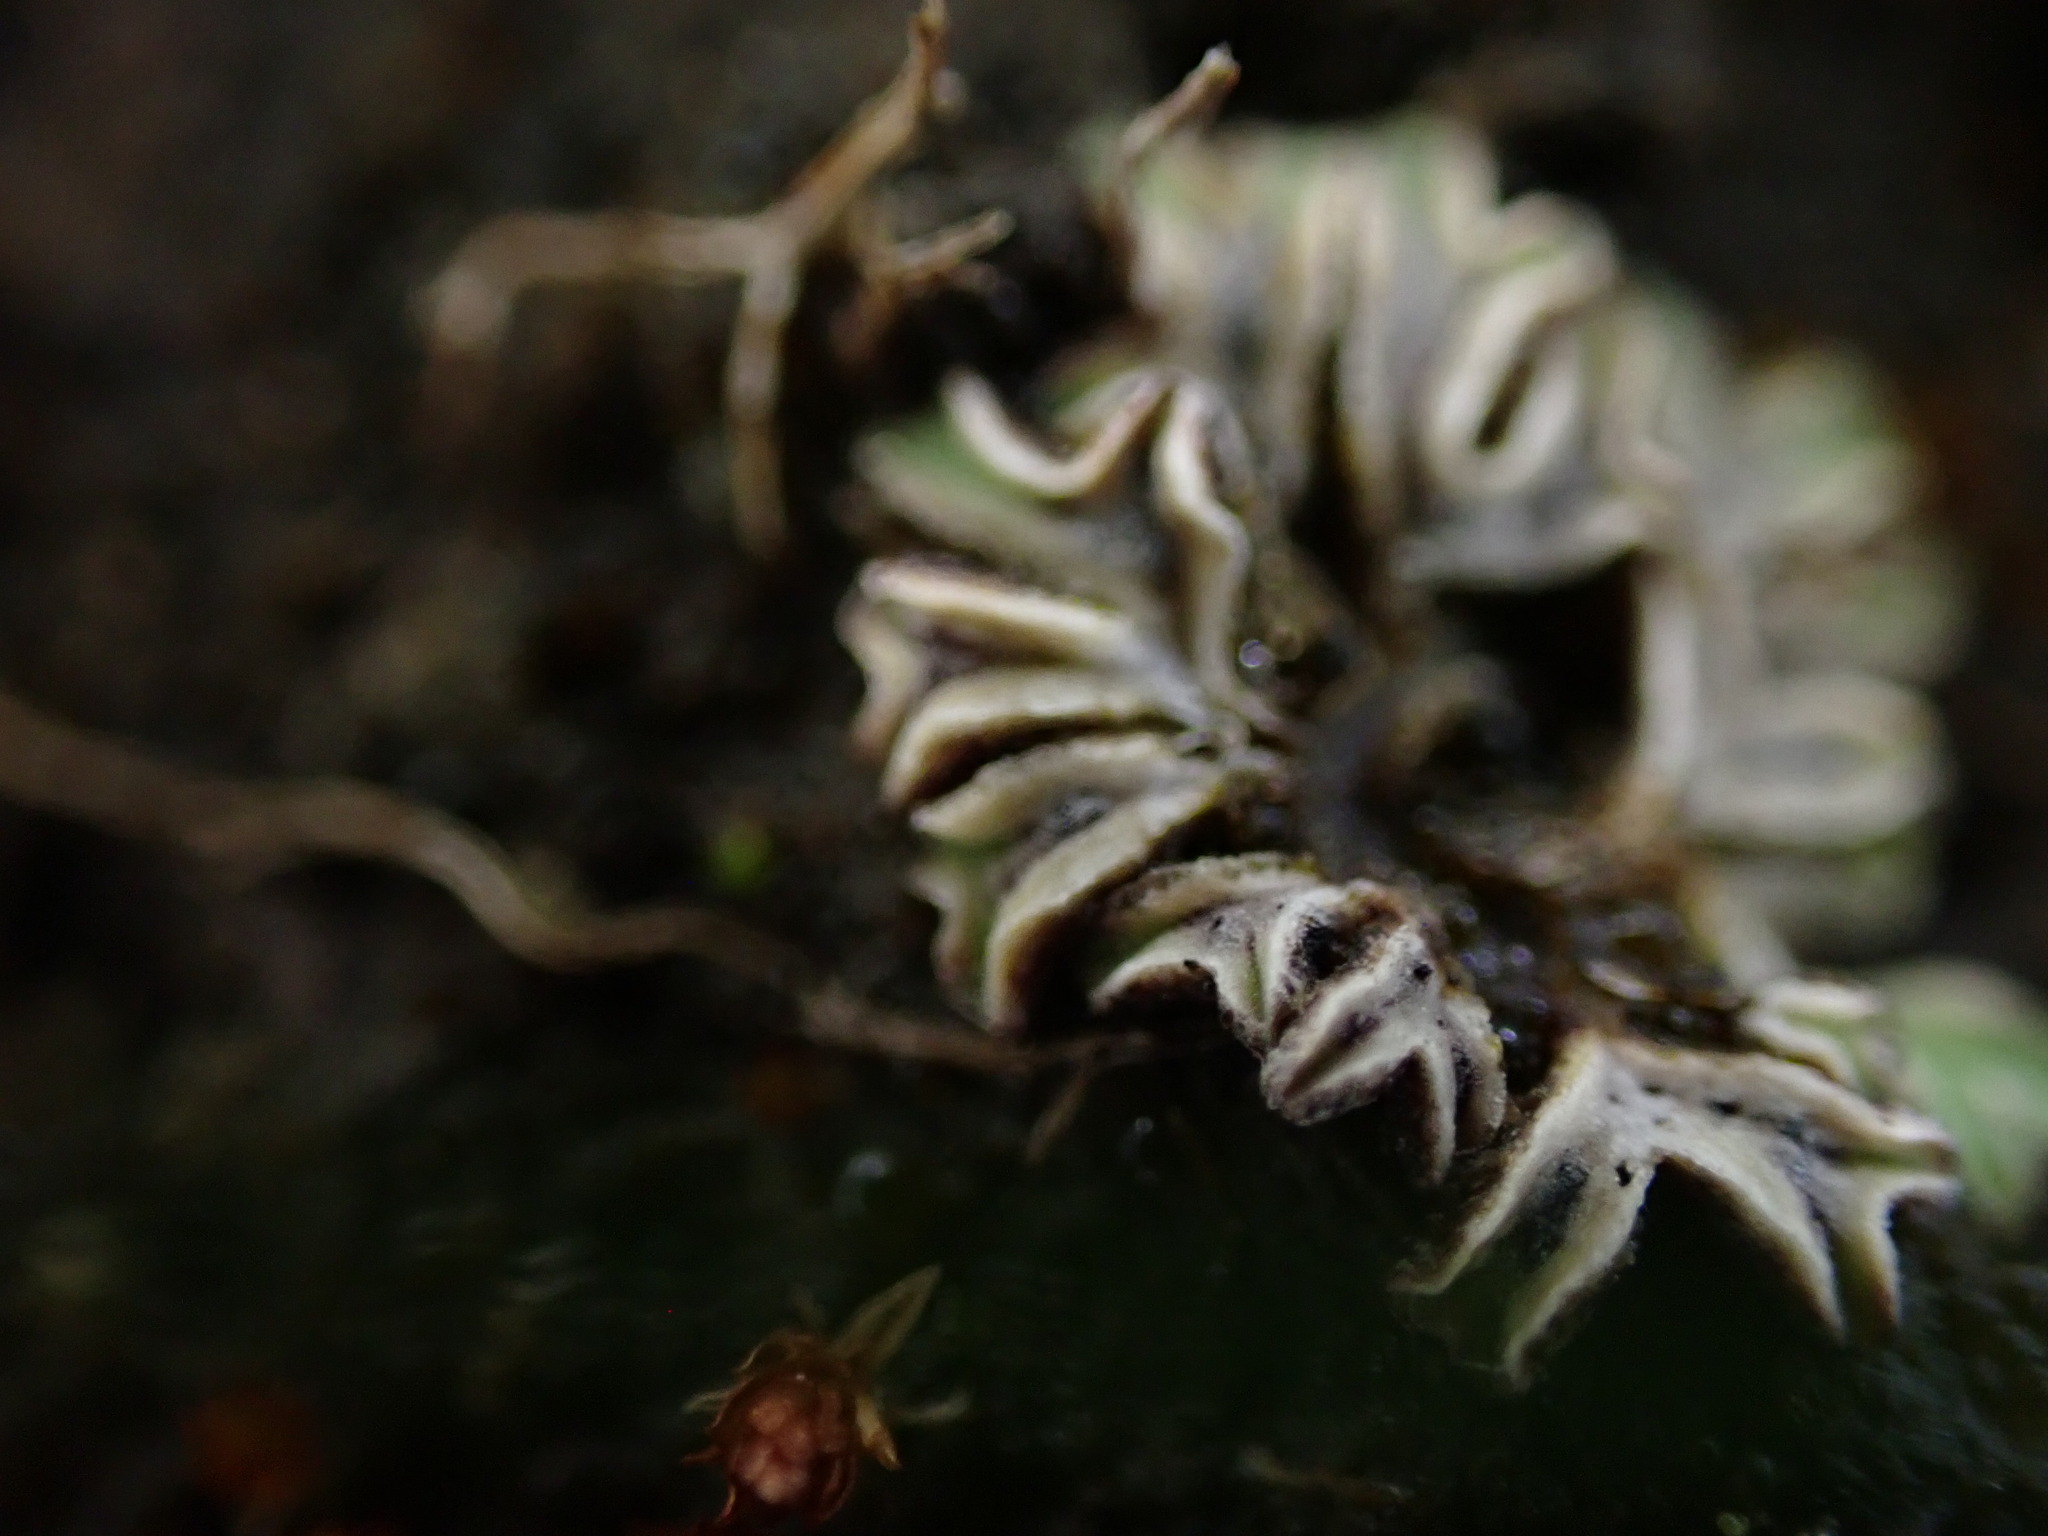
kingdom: Plantae
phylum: Marchantiophyta
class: Marchantiopsida
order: Marchantiales
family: Ricciaceae
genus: Riccia
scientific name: Riccia sorocarpa
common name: Common crystalwort
